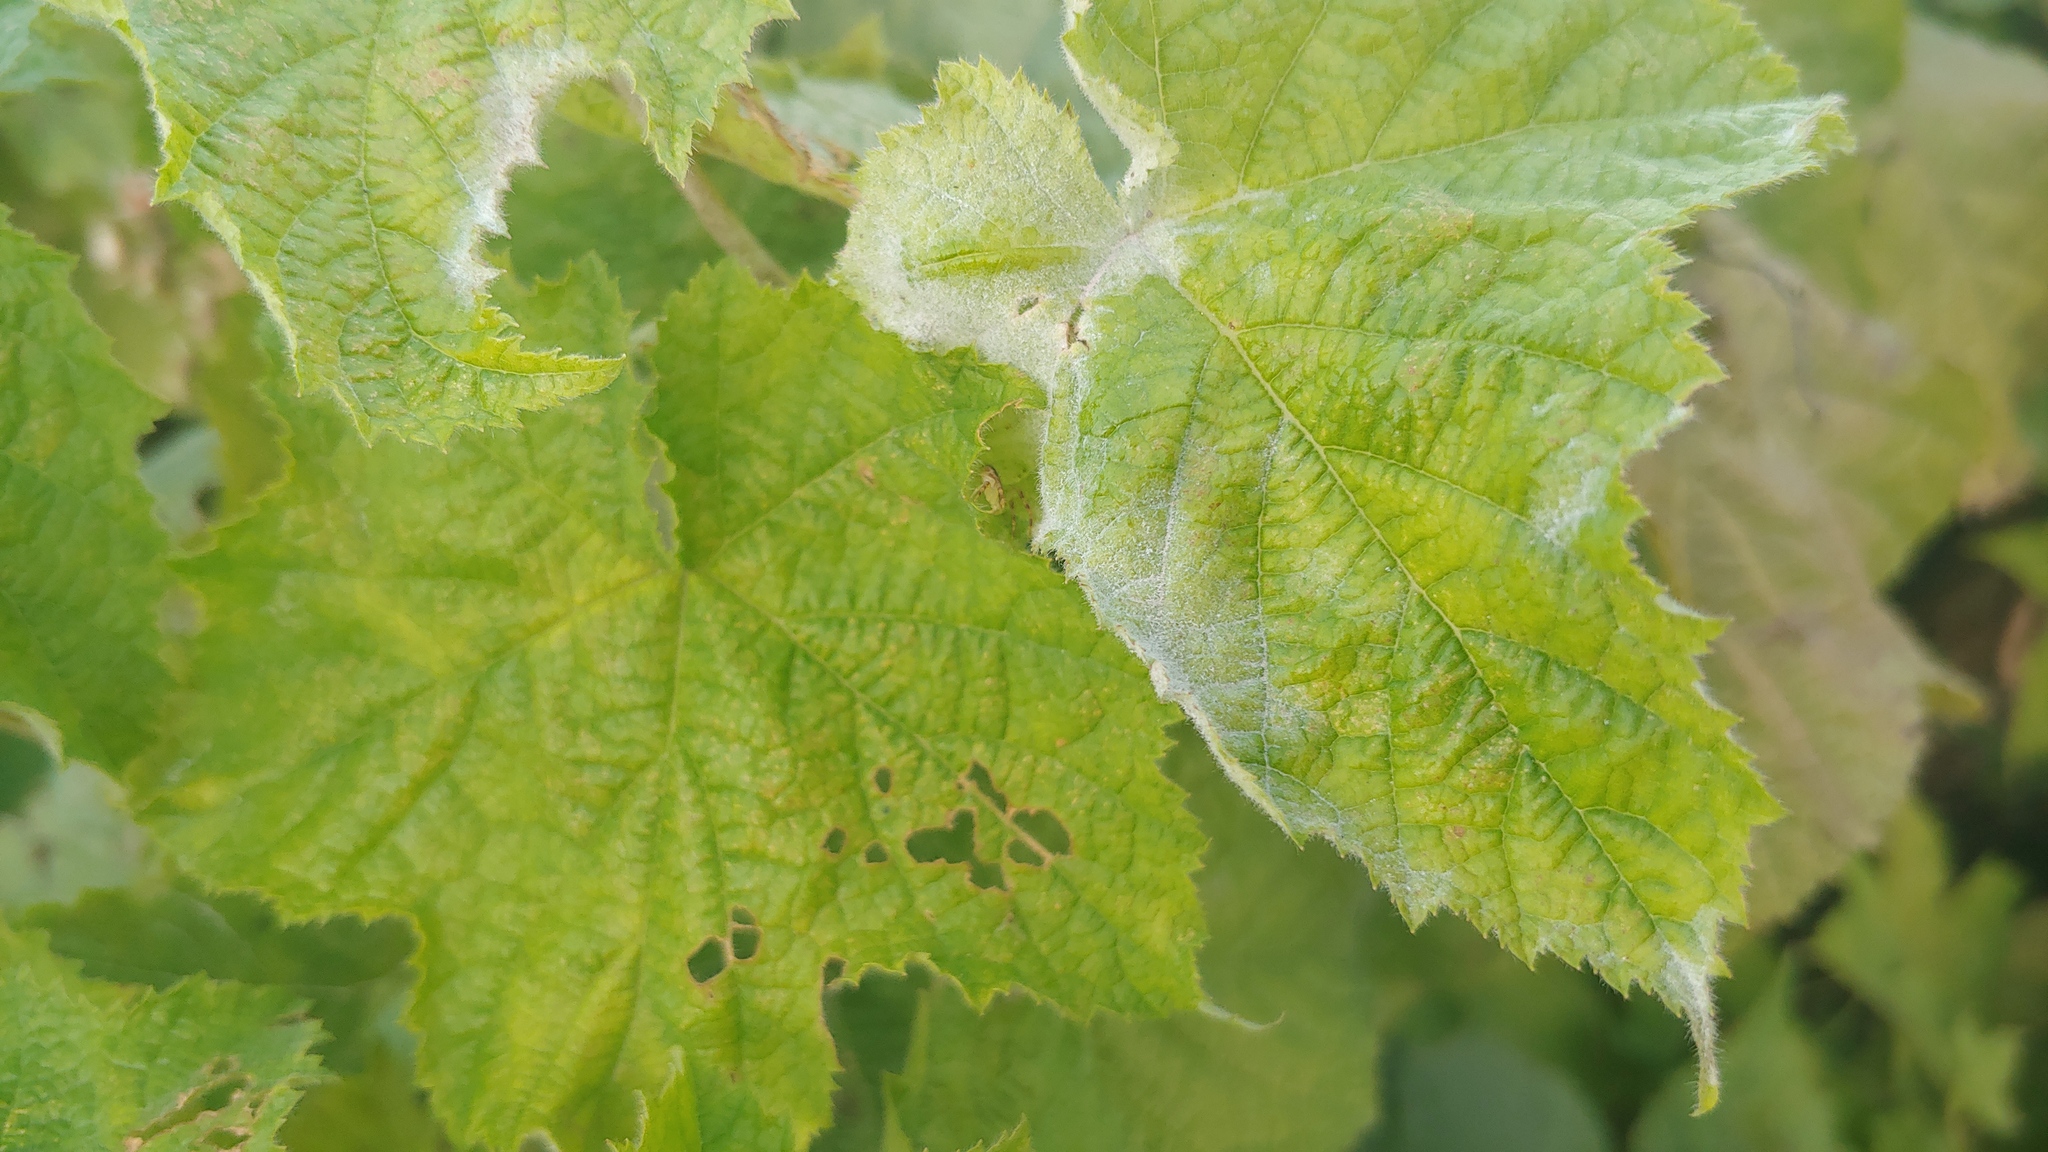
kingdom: Fungi
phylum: Ascomycota
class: Leotiomycetes
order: Helotiales
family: Erysiphaceae
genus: Podosphaera
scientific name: Podosphaera aphanis
